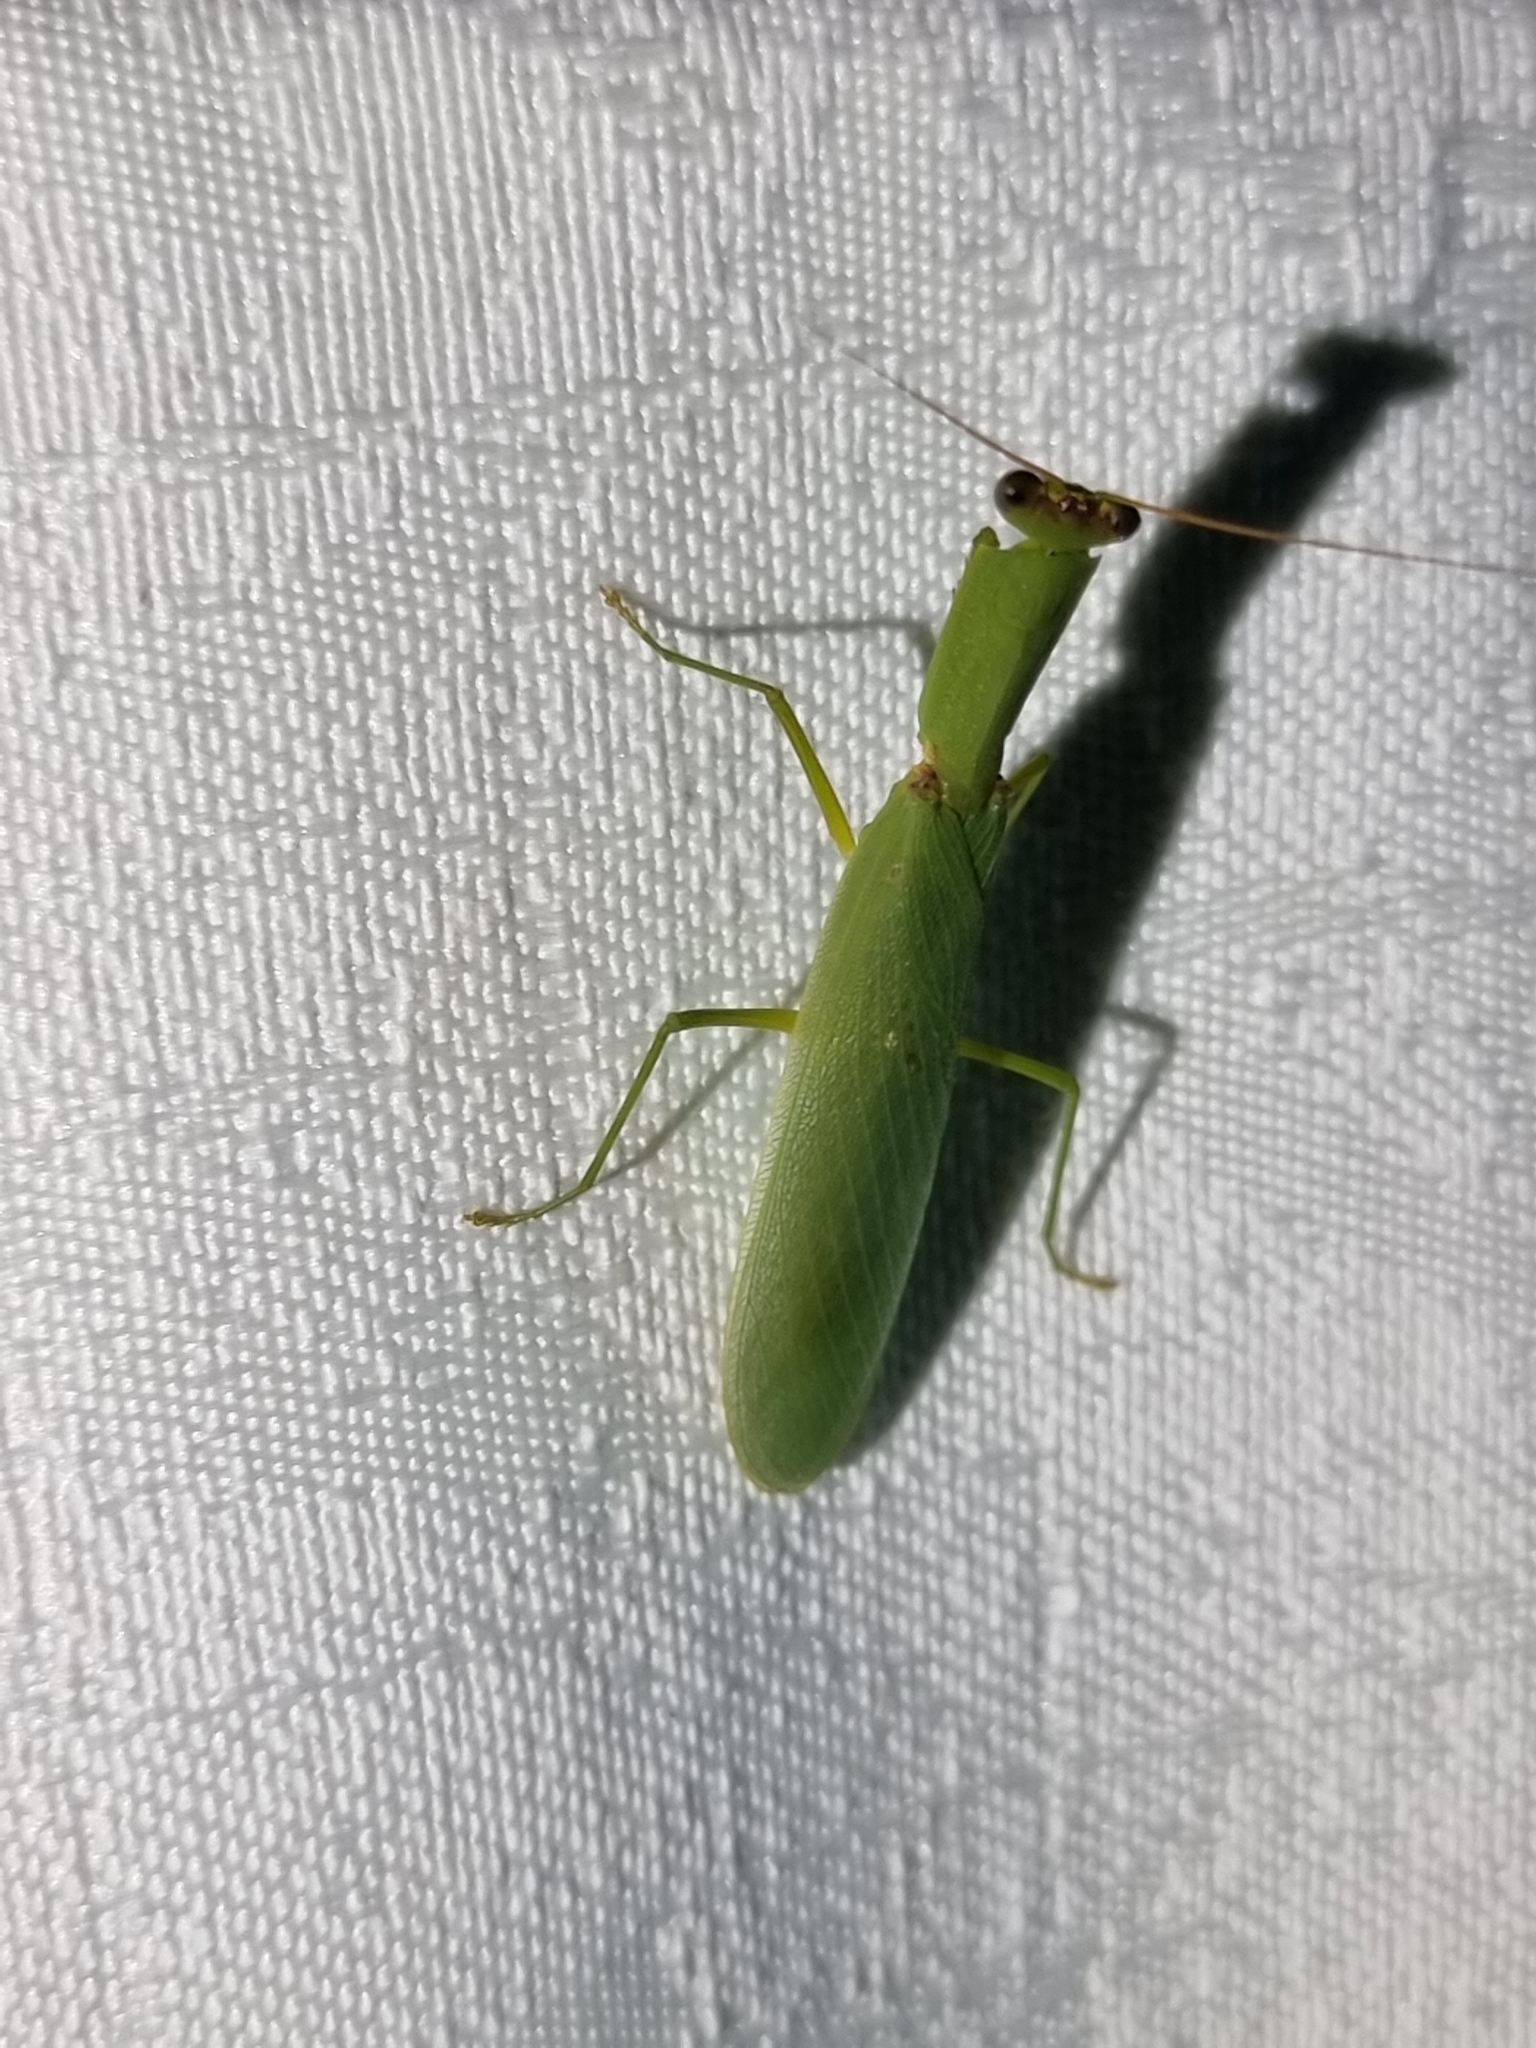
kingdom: Animalia
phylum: Arthropoda
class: Insecta
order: Mantodea
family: Mantidae
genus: Orthodera
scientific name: Orthodera ministralis
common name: Mantis
